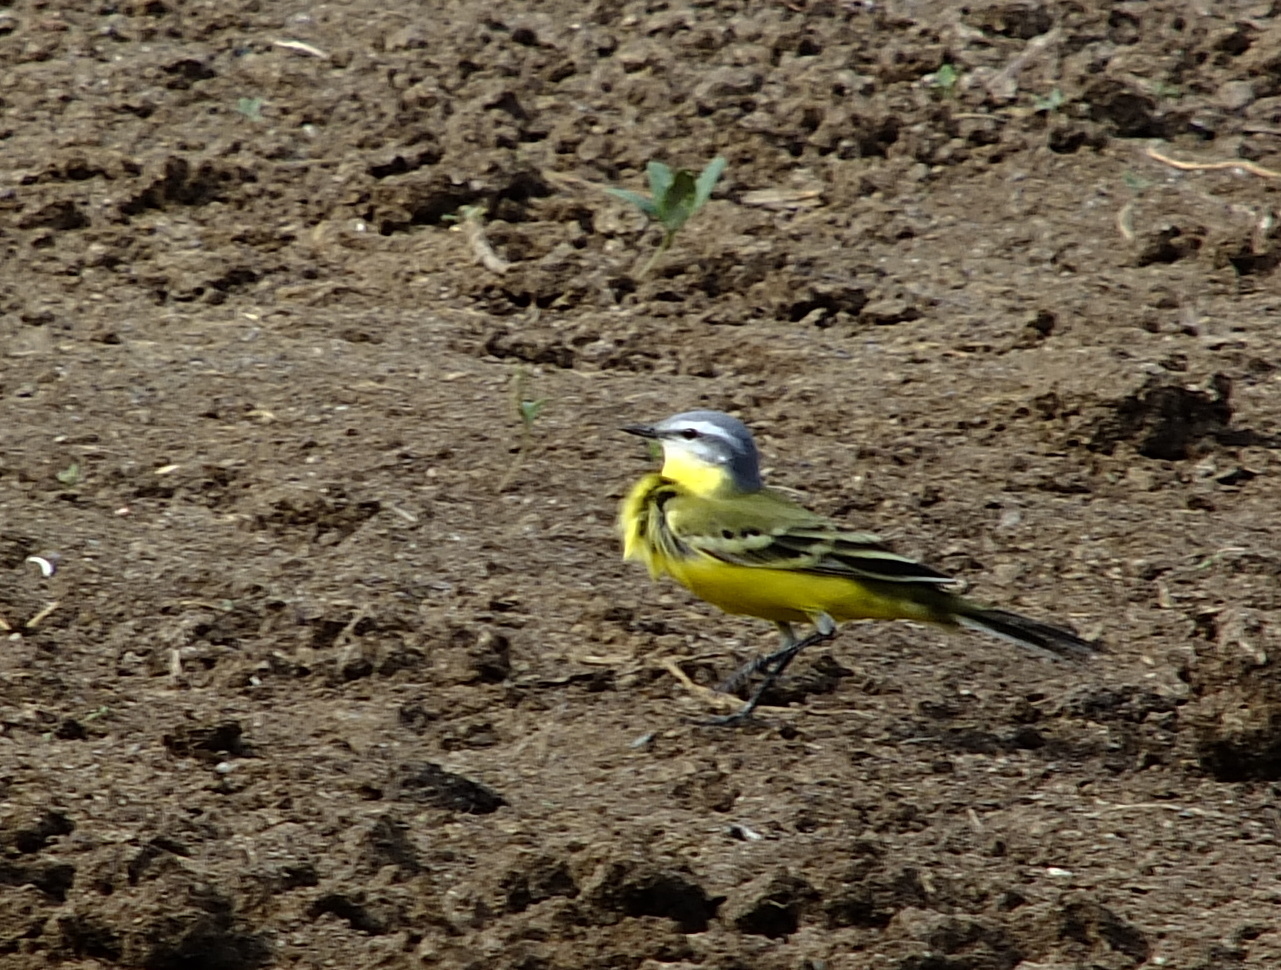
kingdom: Animalia
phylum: Chordata
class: Aves
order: Passeriformes
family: Motacillidae
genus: Motacilla
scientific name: Motacilla flava
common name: Western yellow wagtail
